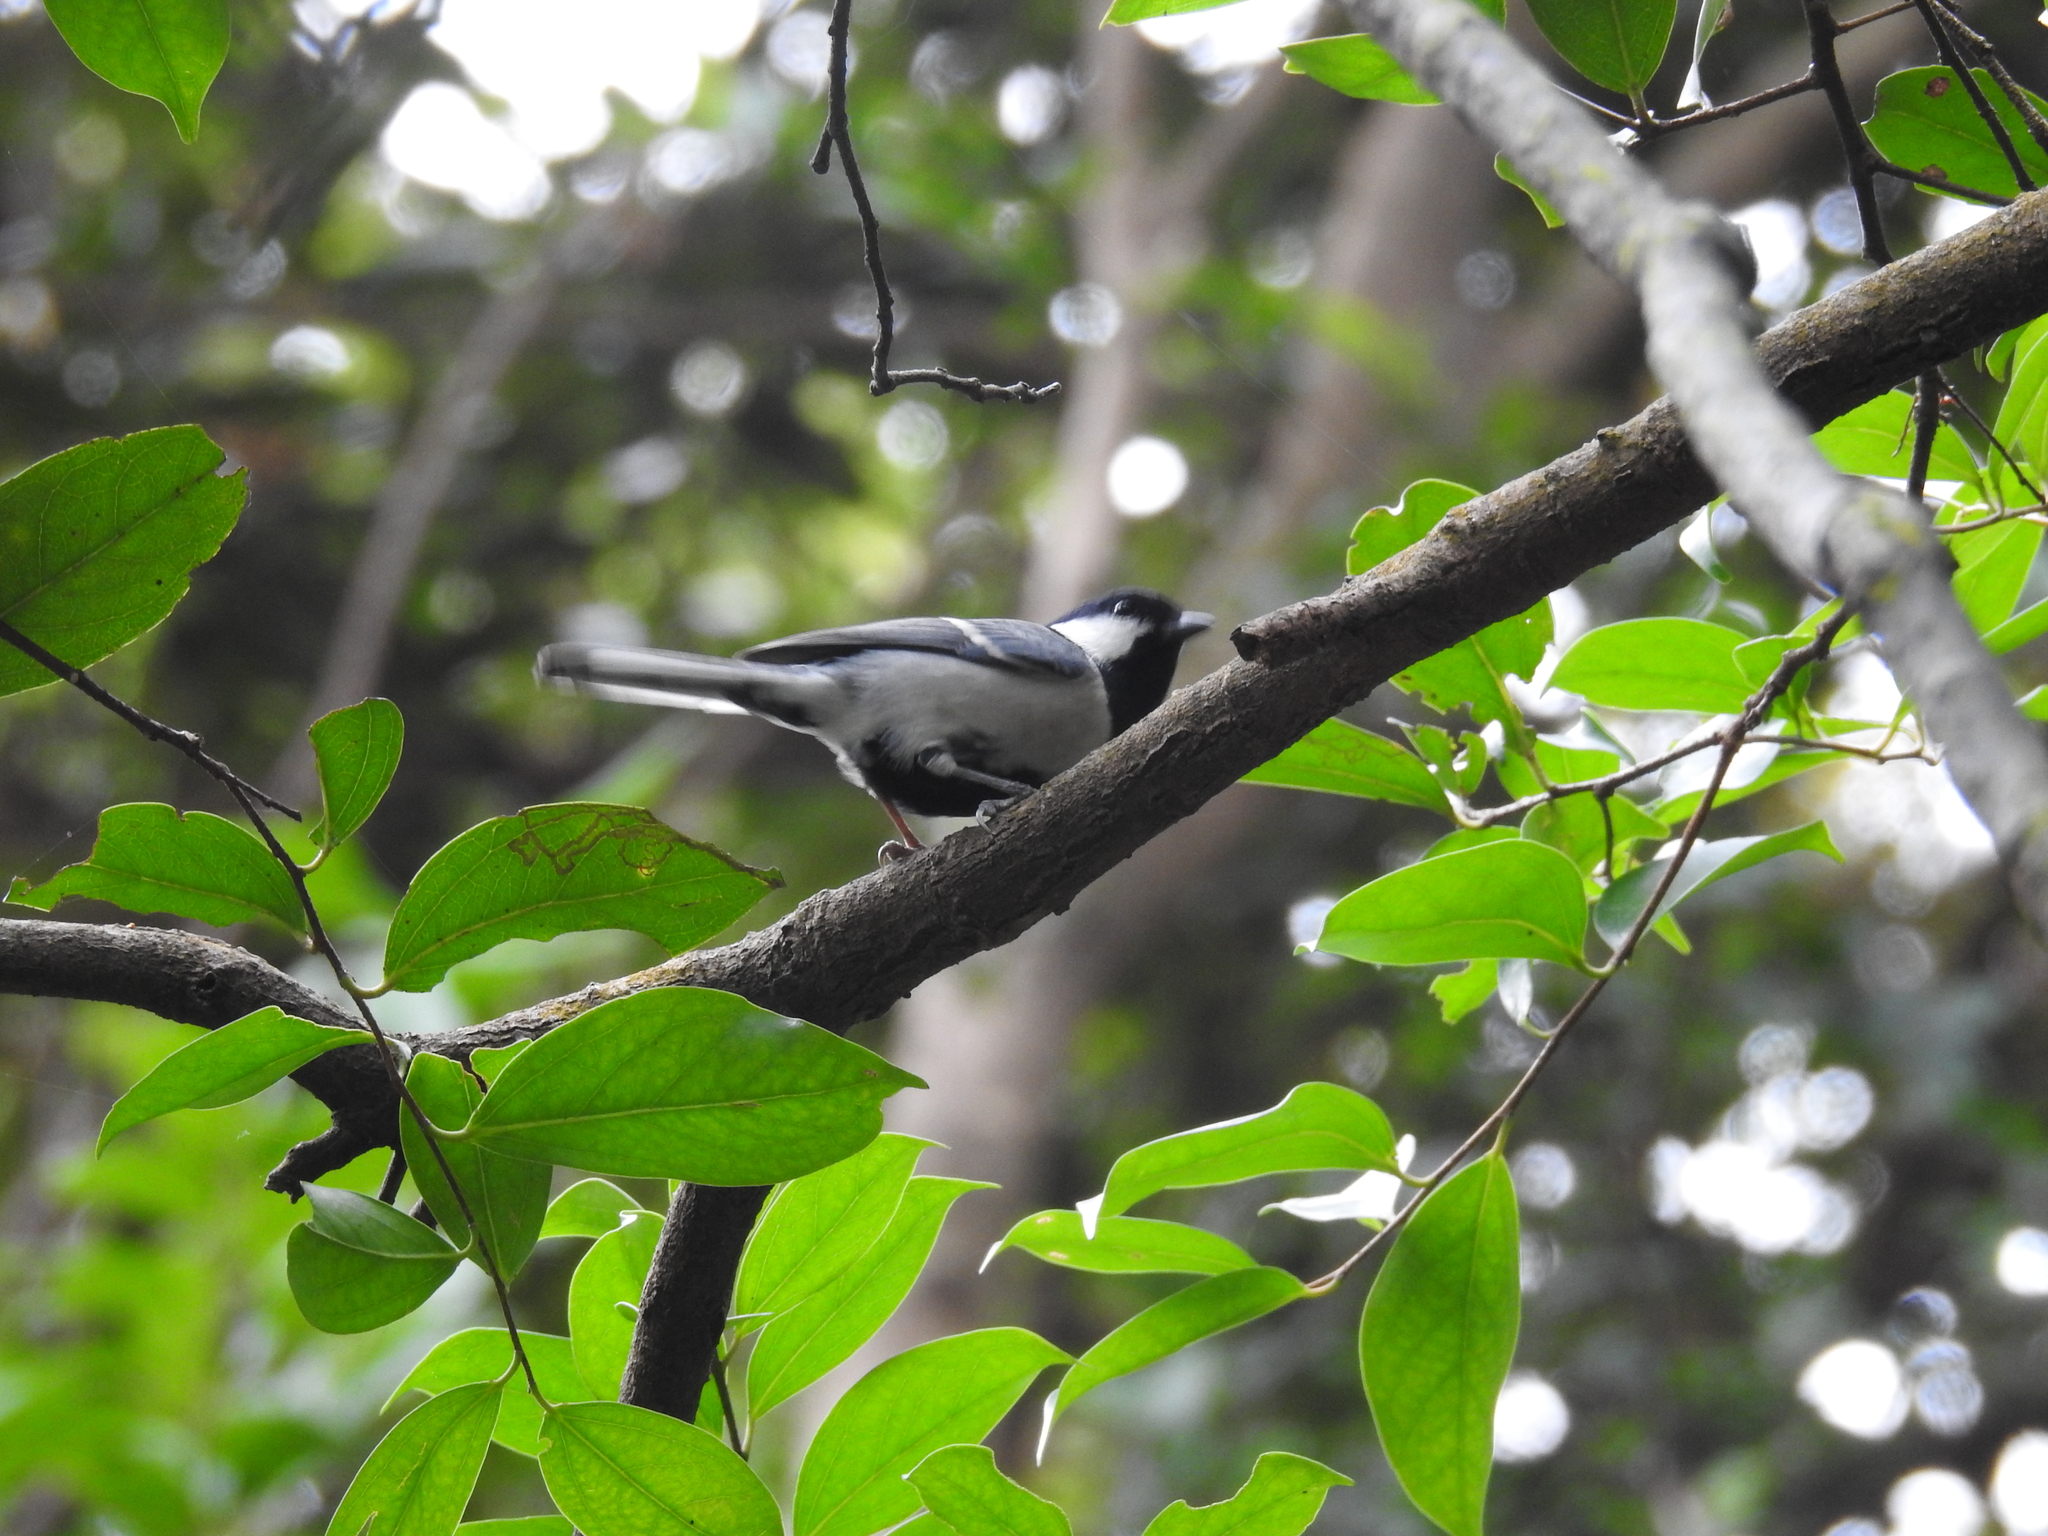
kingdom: Animalia
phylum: Chordata
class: Aves
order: Passeriformes
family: Paridae
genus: Parus
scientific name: Parus minor
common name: Japanese tit
